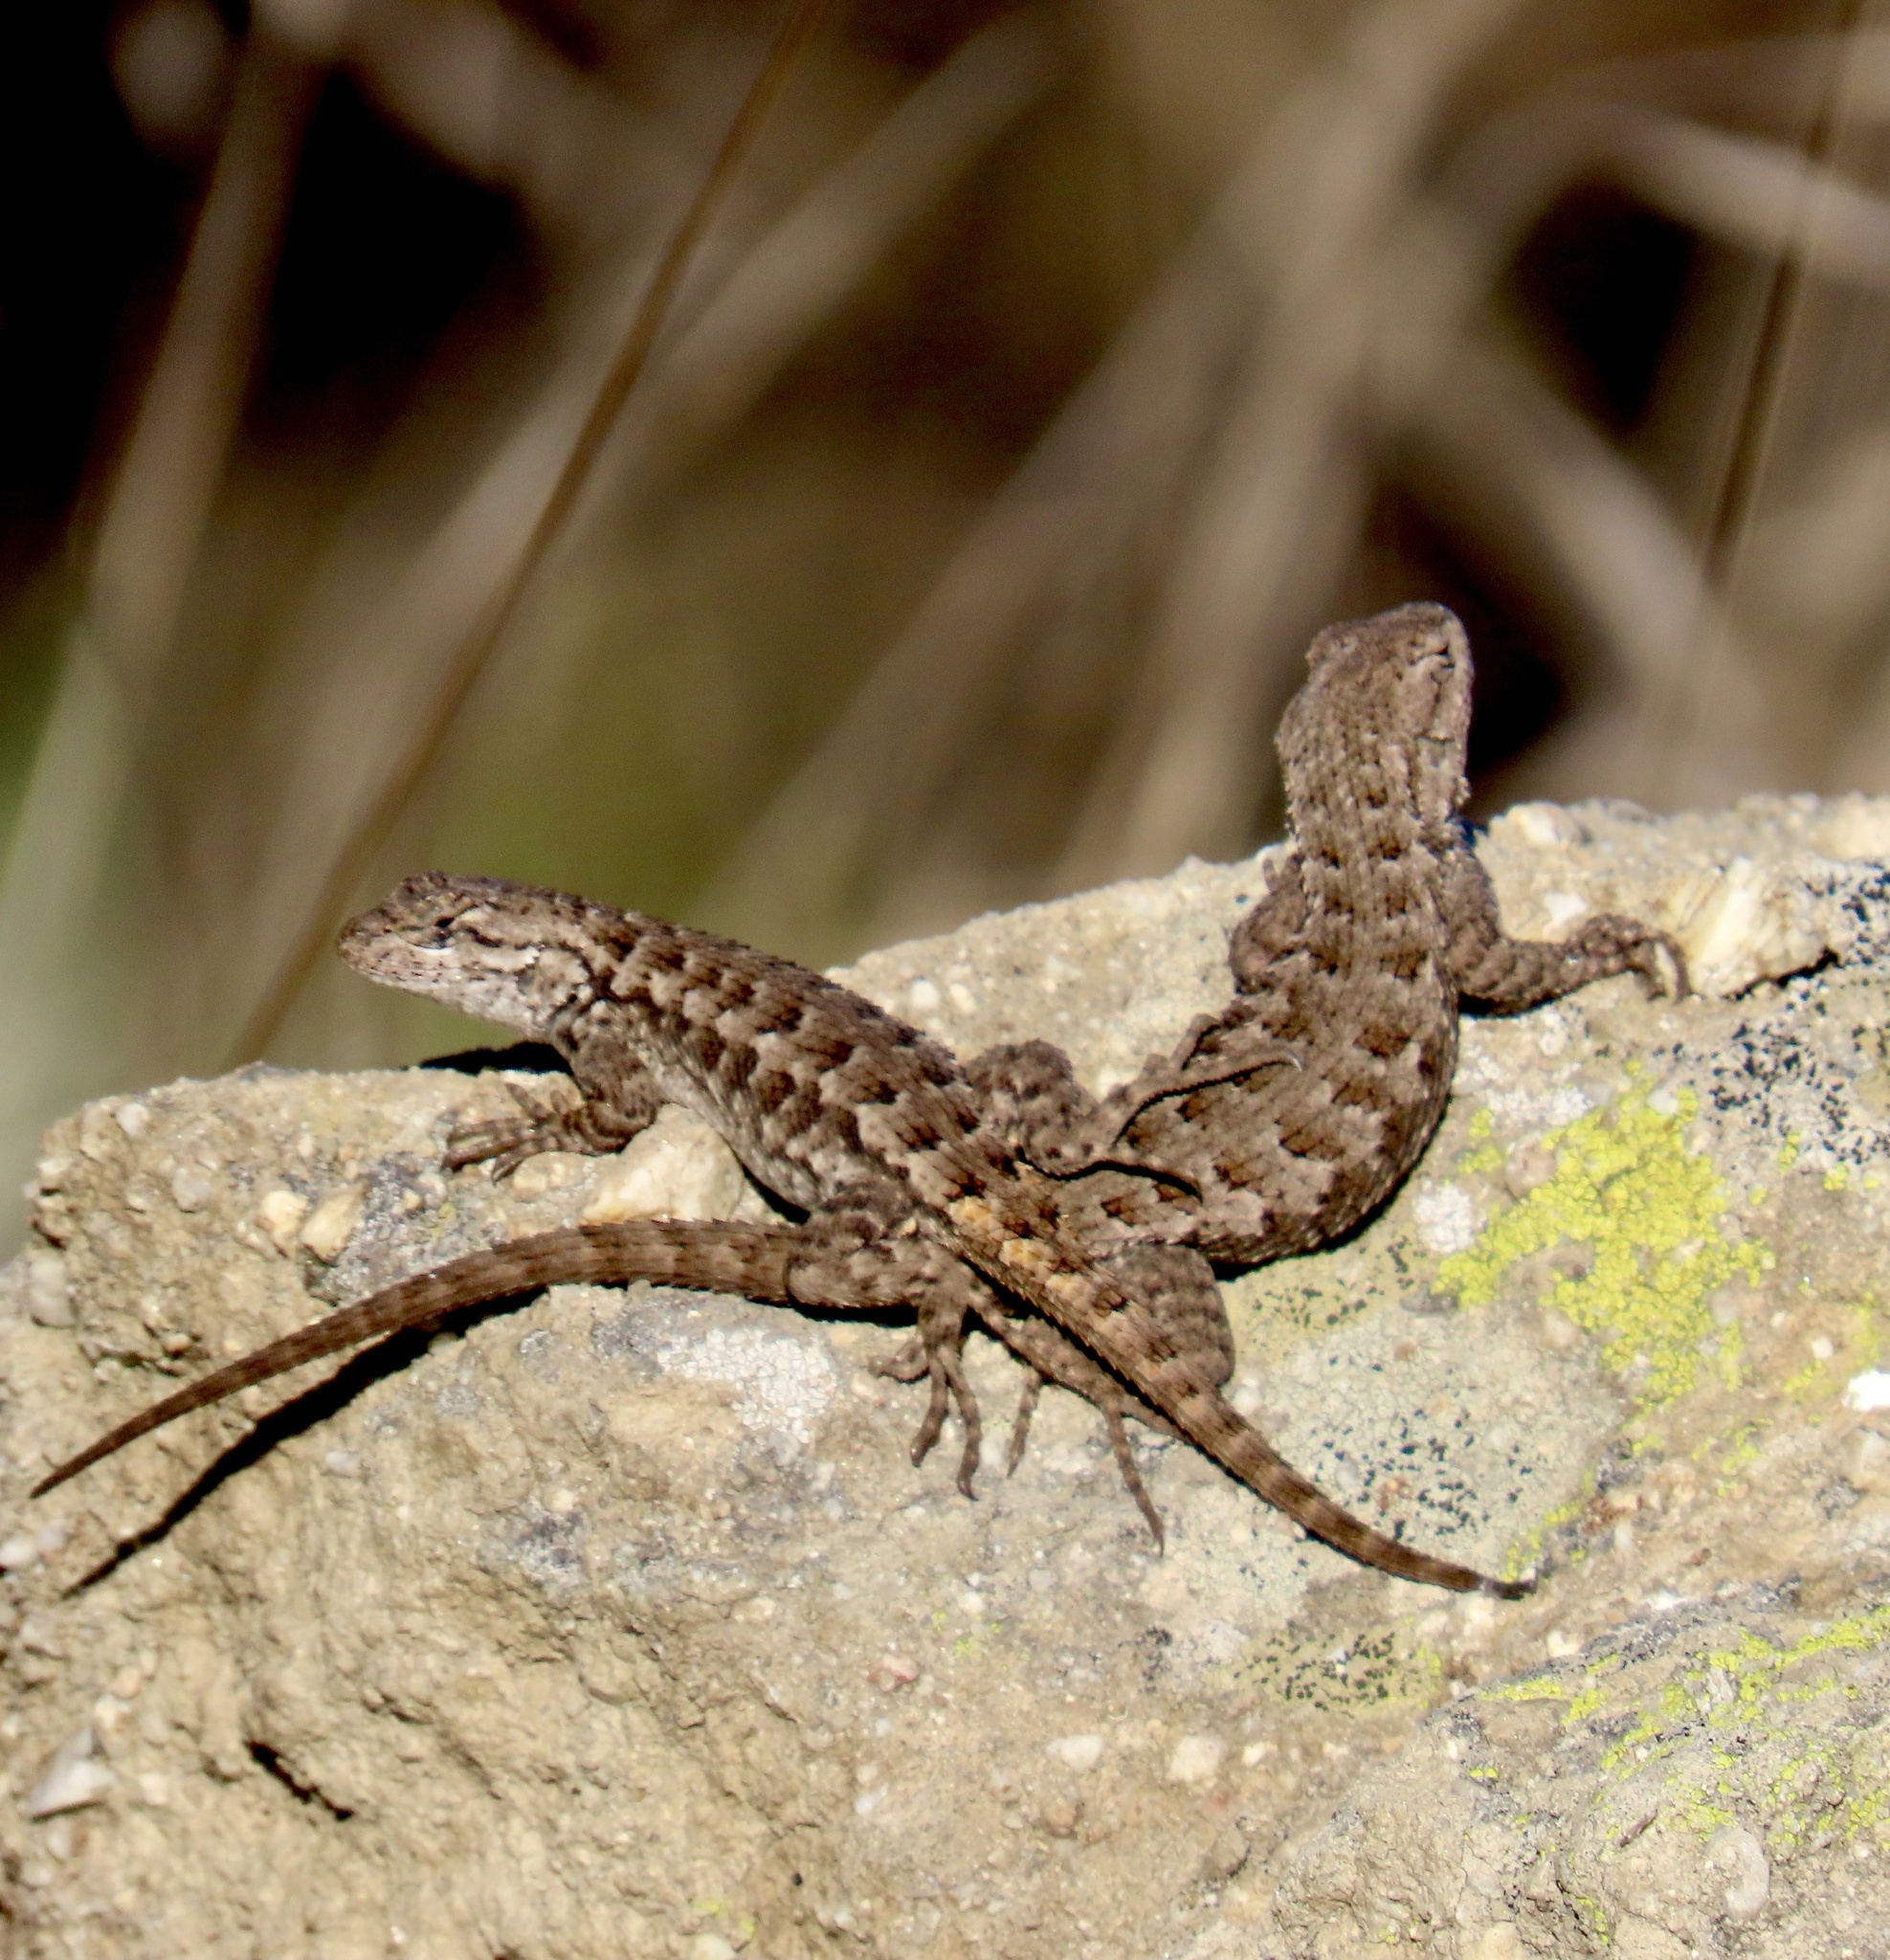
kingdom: Animalia
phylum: Chordata
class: Squamata
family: Phrynosomatidae
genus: Sceloporus
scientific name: Sceloporus occidentalis
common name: Western fence lizard
